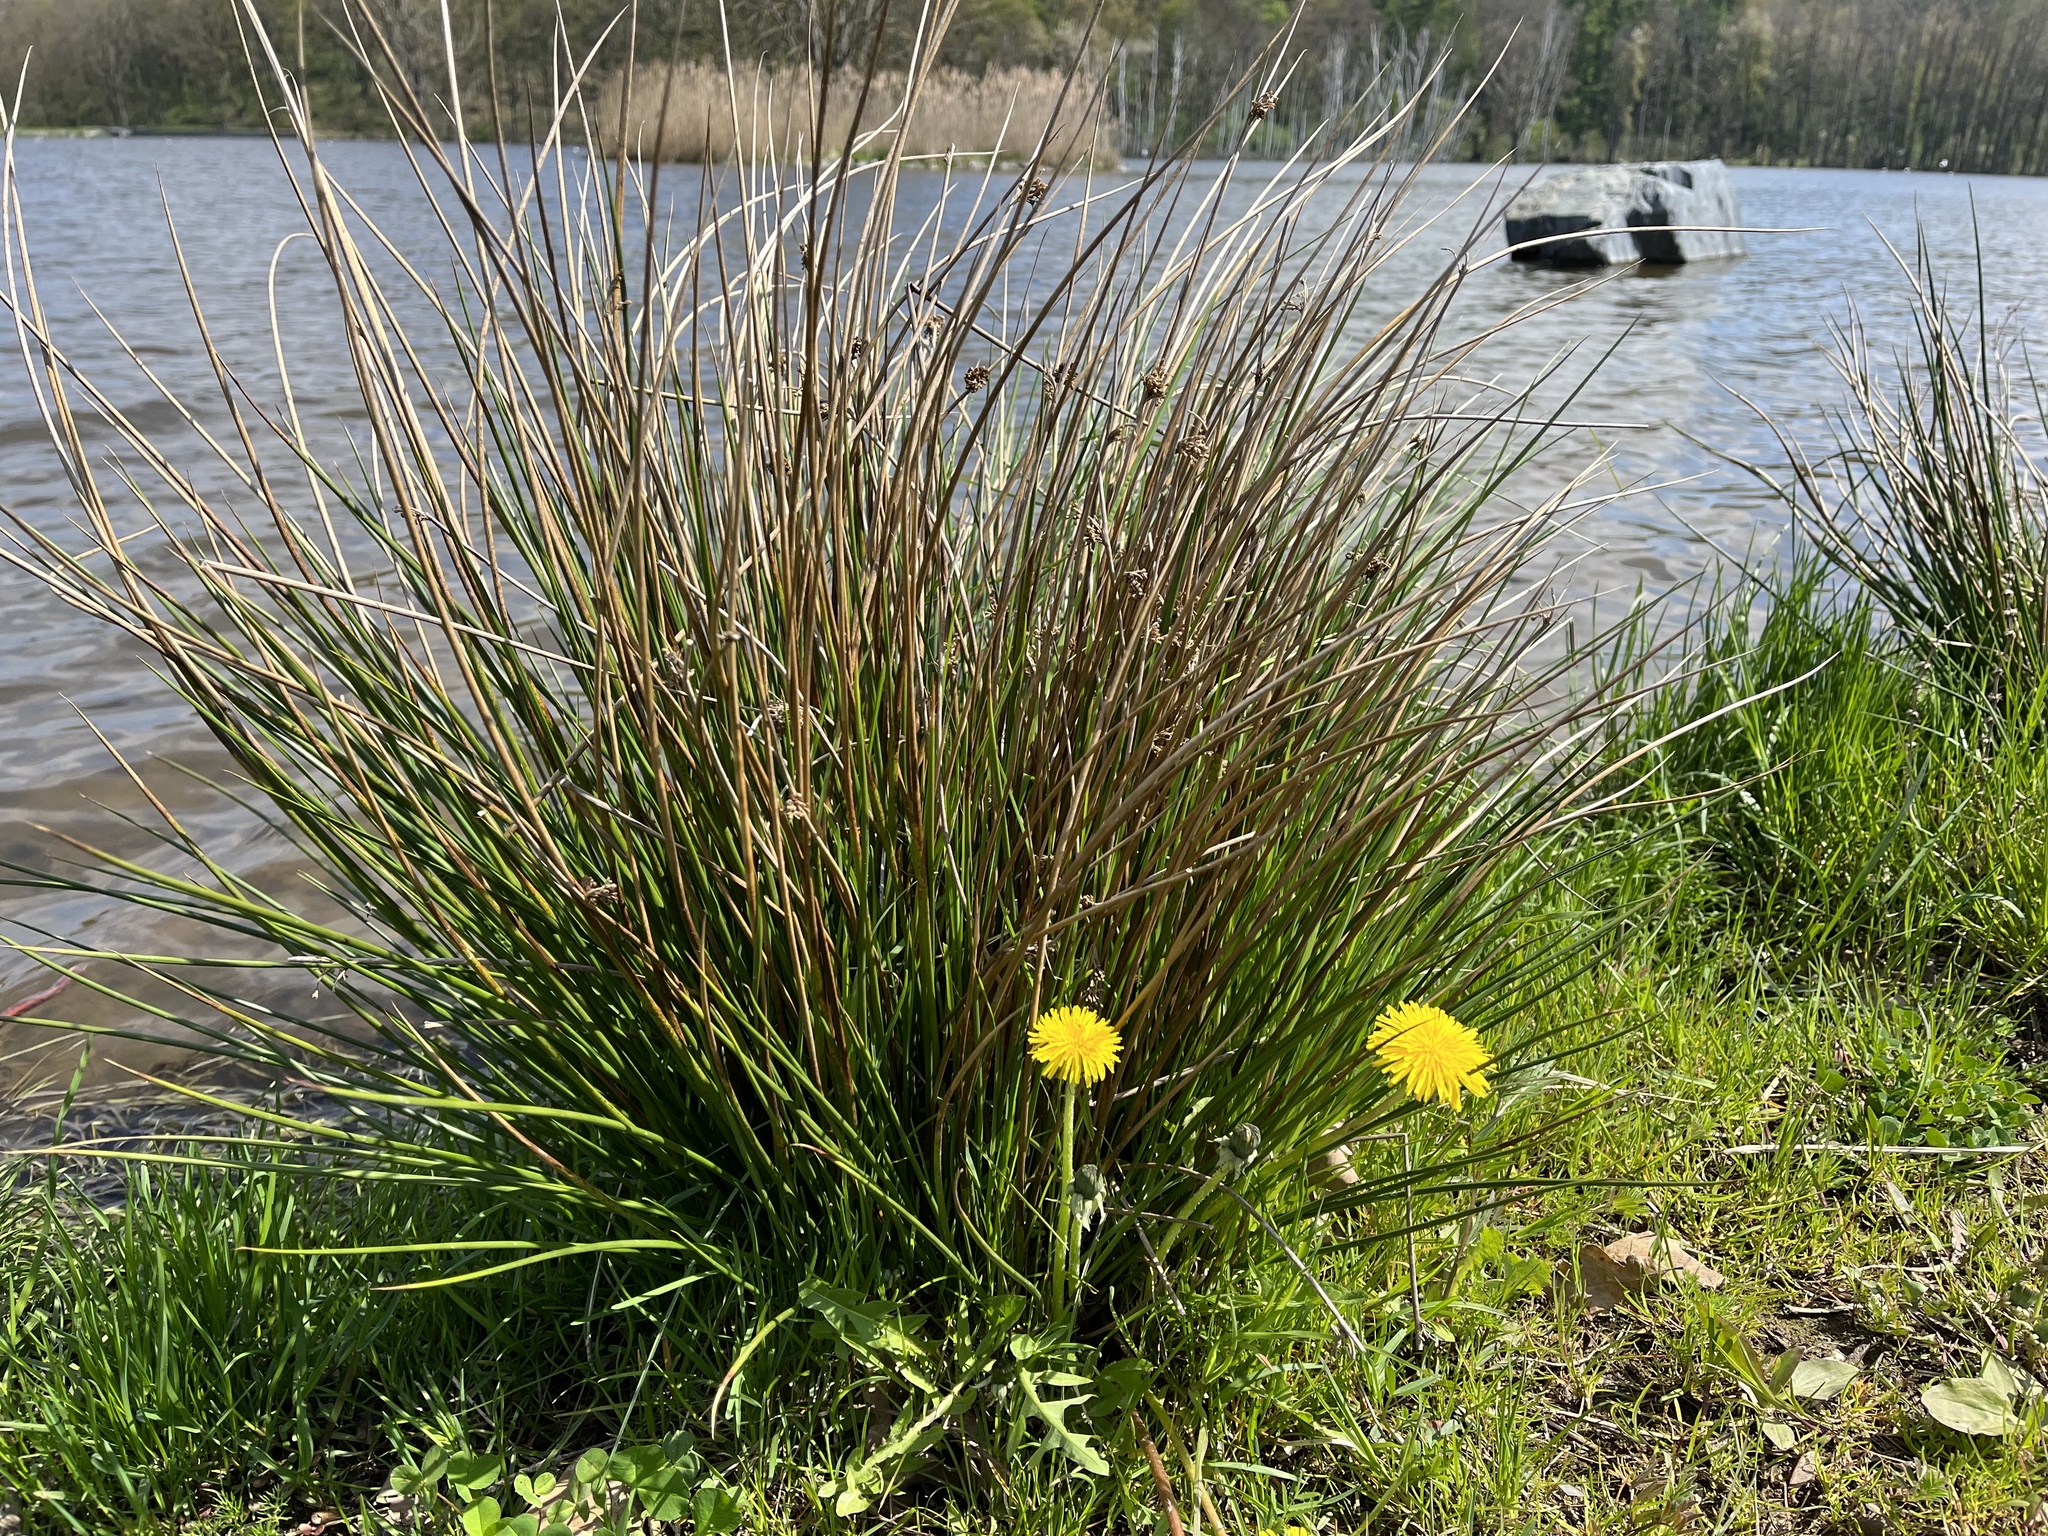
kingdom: Plantae
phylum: Tracheophyta
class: Liliopsida
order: Poales
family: Juncaceae
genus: Juncus
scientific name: Juncus effusus
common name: Soft rush
